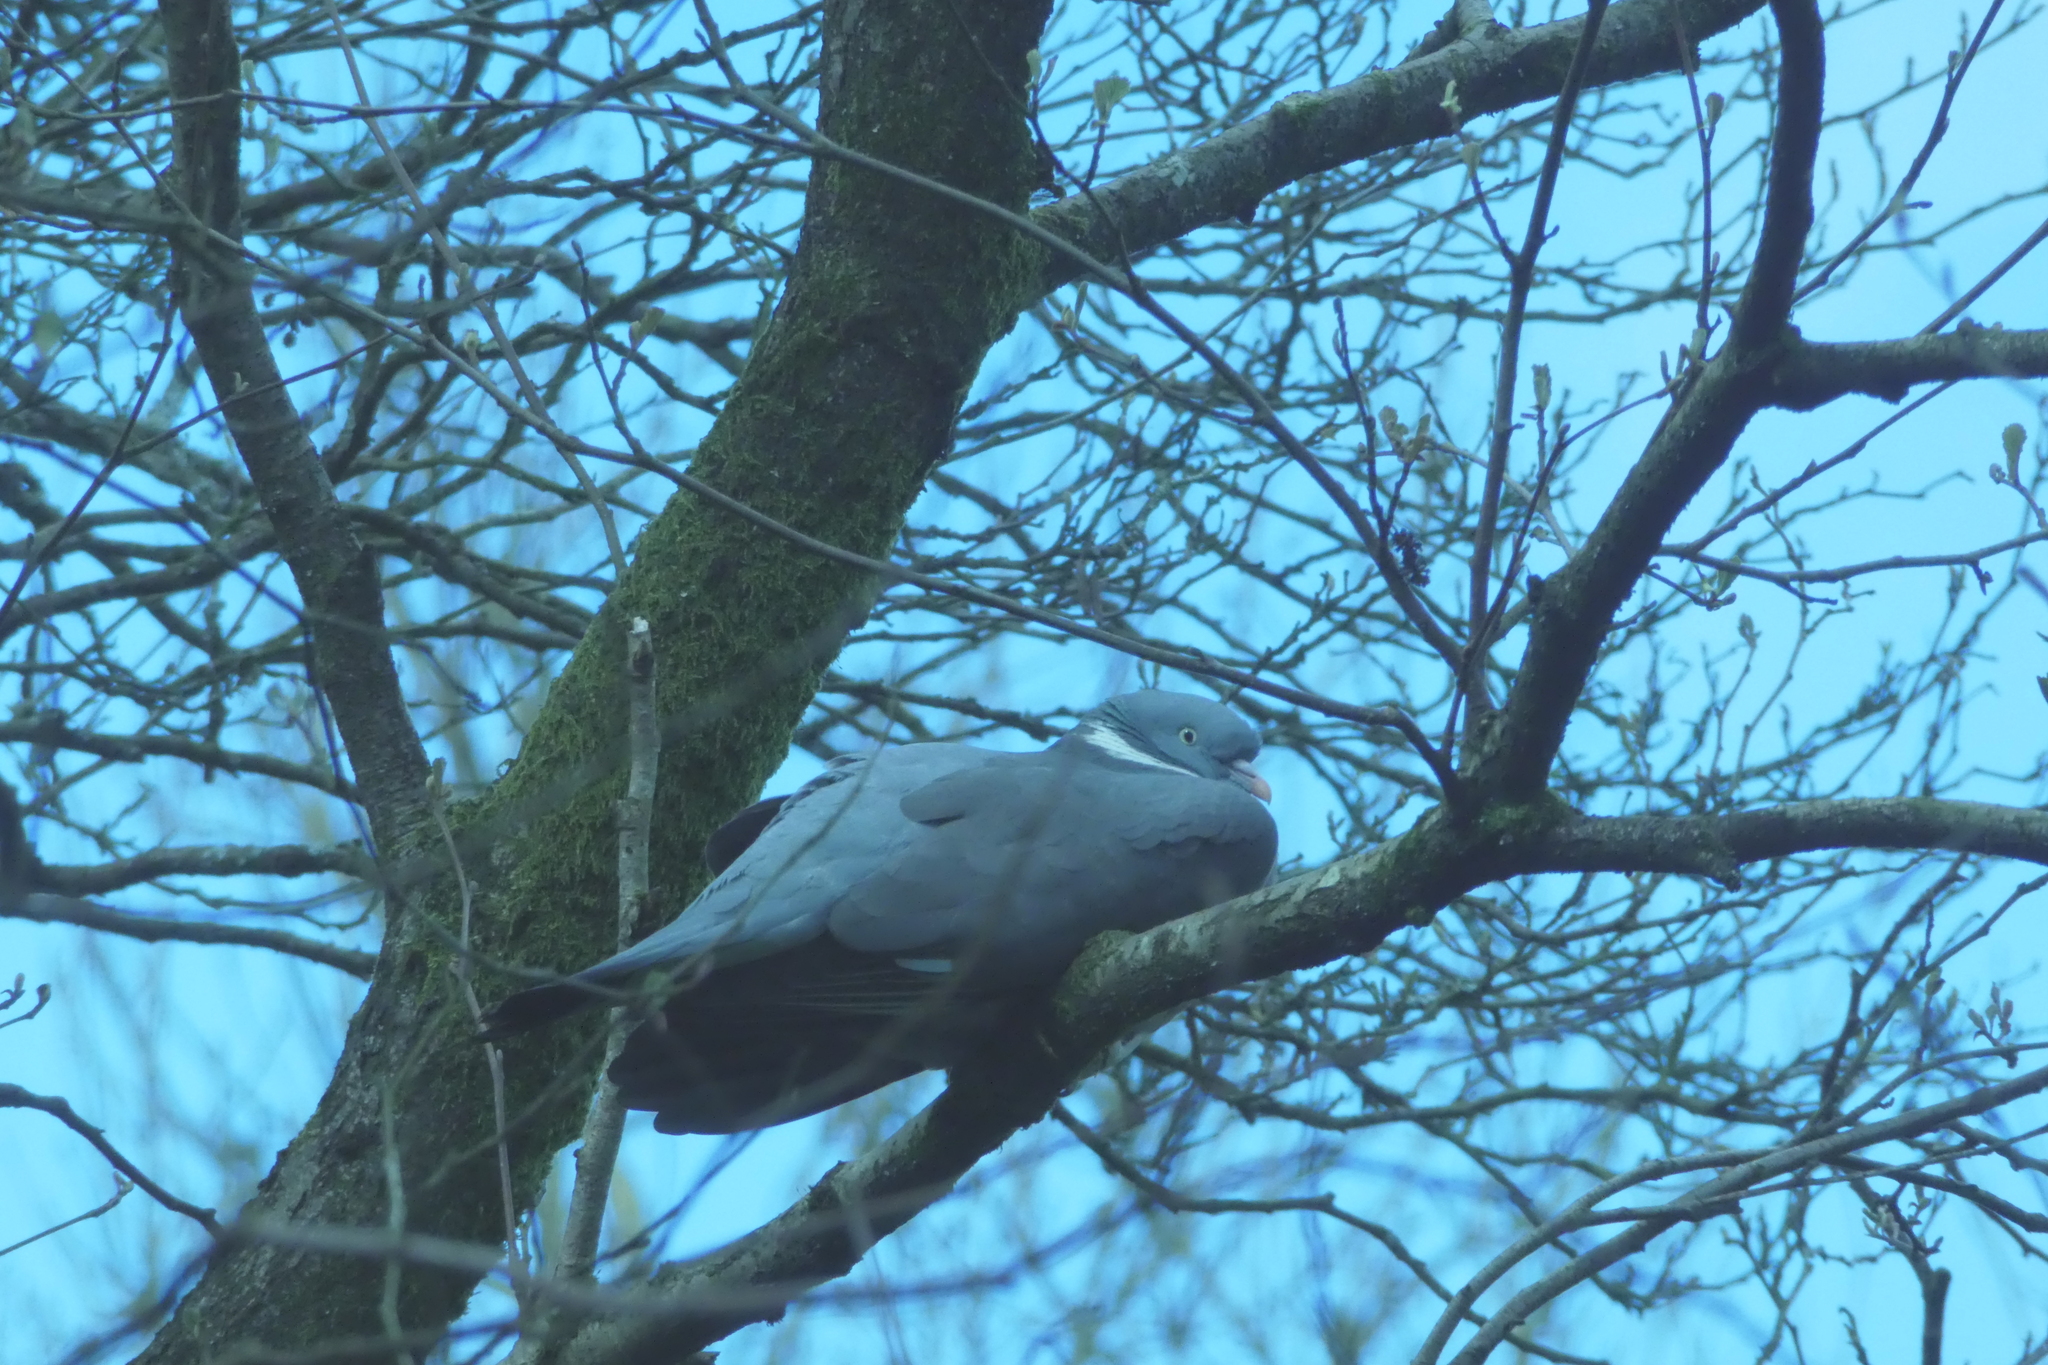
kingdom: Animalia
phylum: Chordata
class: Aves
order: Columbiformes
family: Columbidae
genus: Columba
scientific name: Columba palumbus
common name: Common wood pigeon
